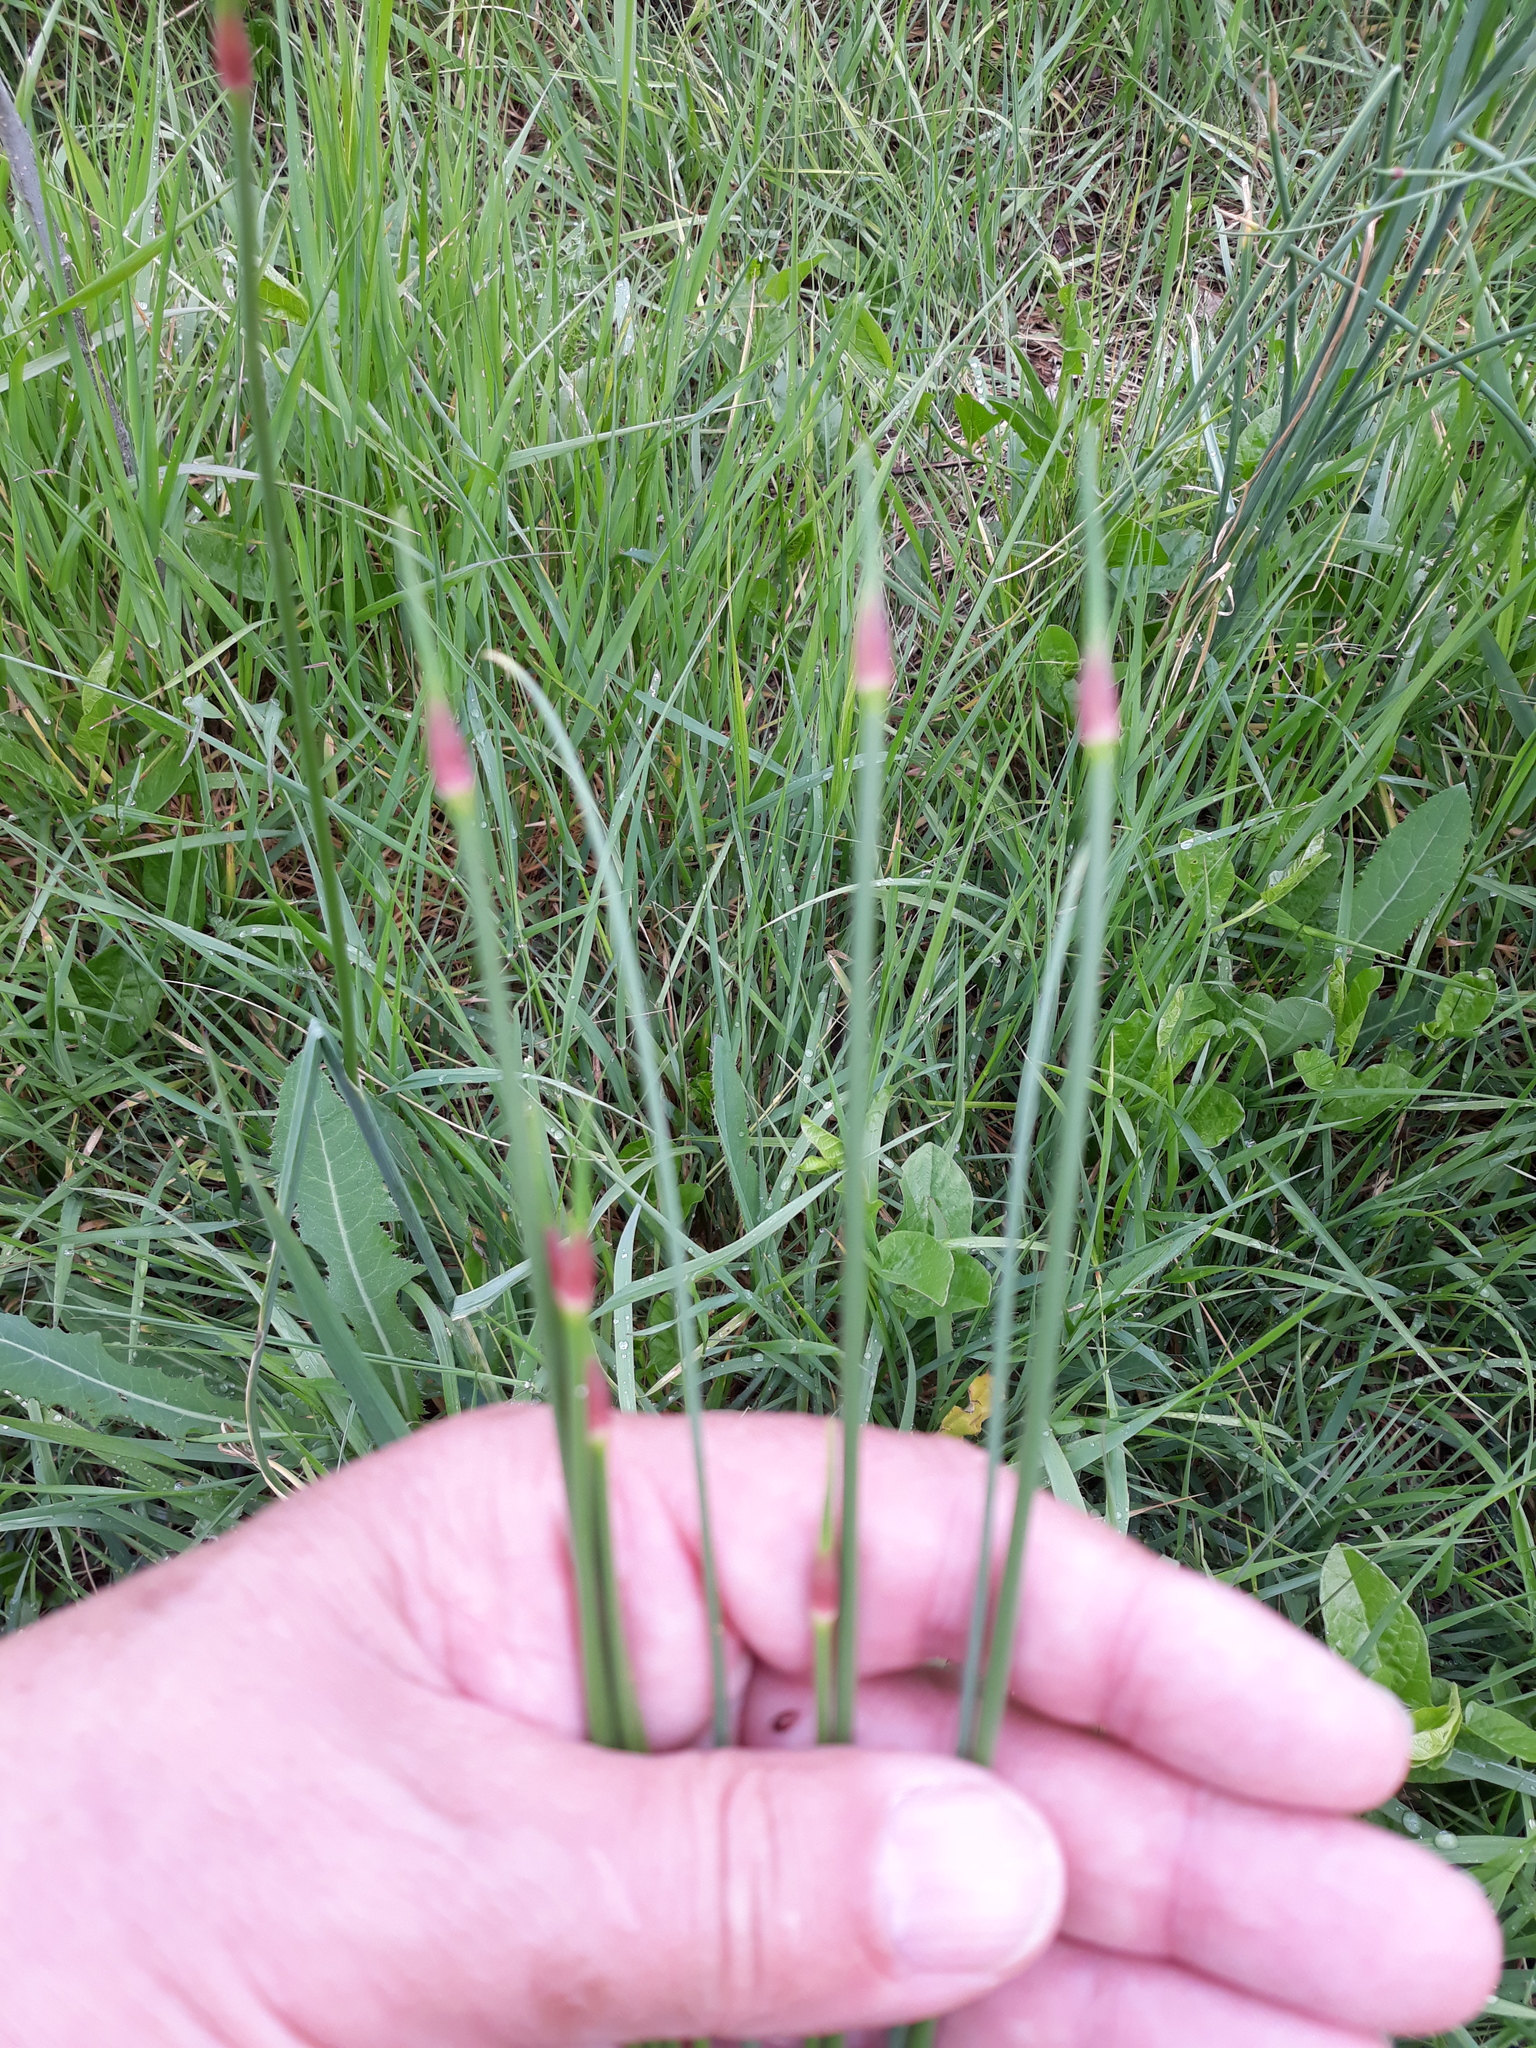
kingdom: Plantae
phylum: Tracheophyta
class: Liliopsida
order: Asparagales
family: Amaryllidaceae
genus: Allium
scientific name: Allium vineale
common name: Crow garlic
